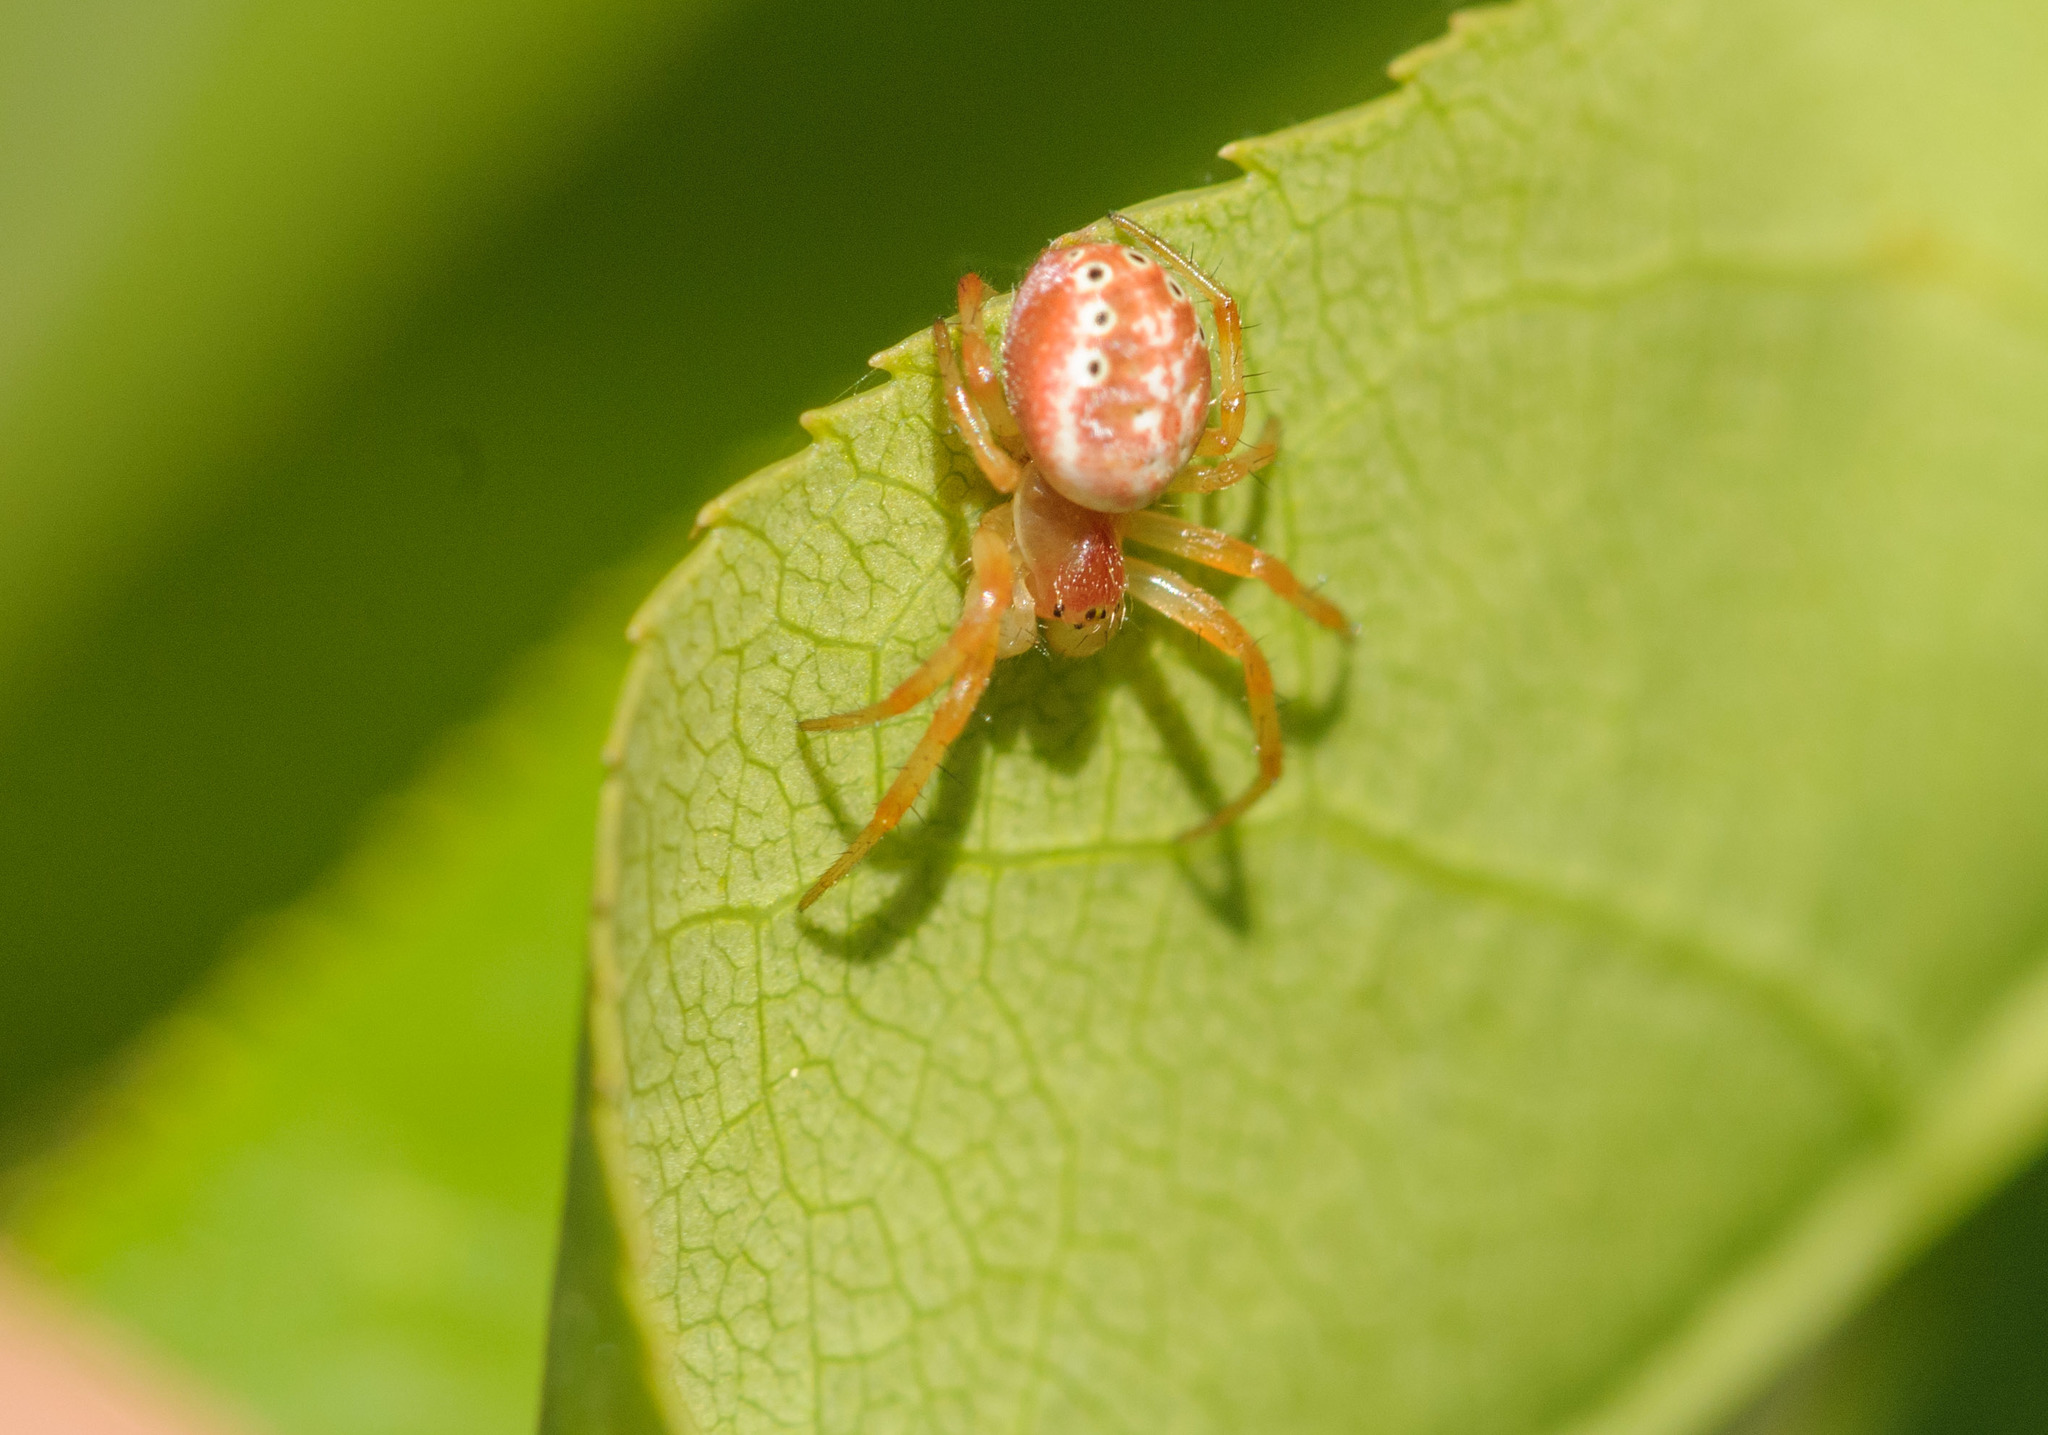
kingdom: Animalia
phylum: Arthropoda
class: Arachnida
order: Araneae
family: Araneidae
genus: Araniella
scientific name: Araniella displicata
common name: Sixspotted orb weaver
